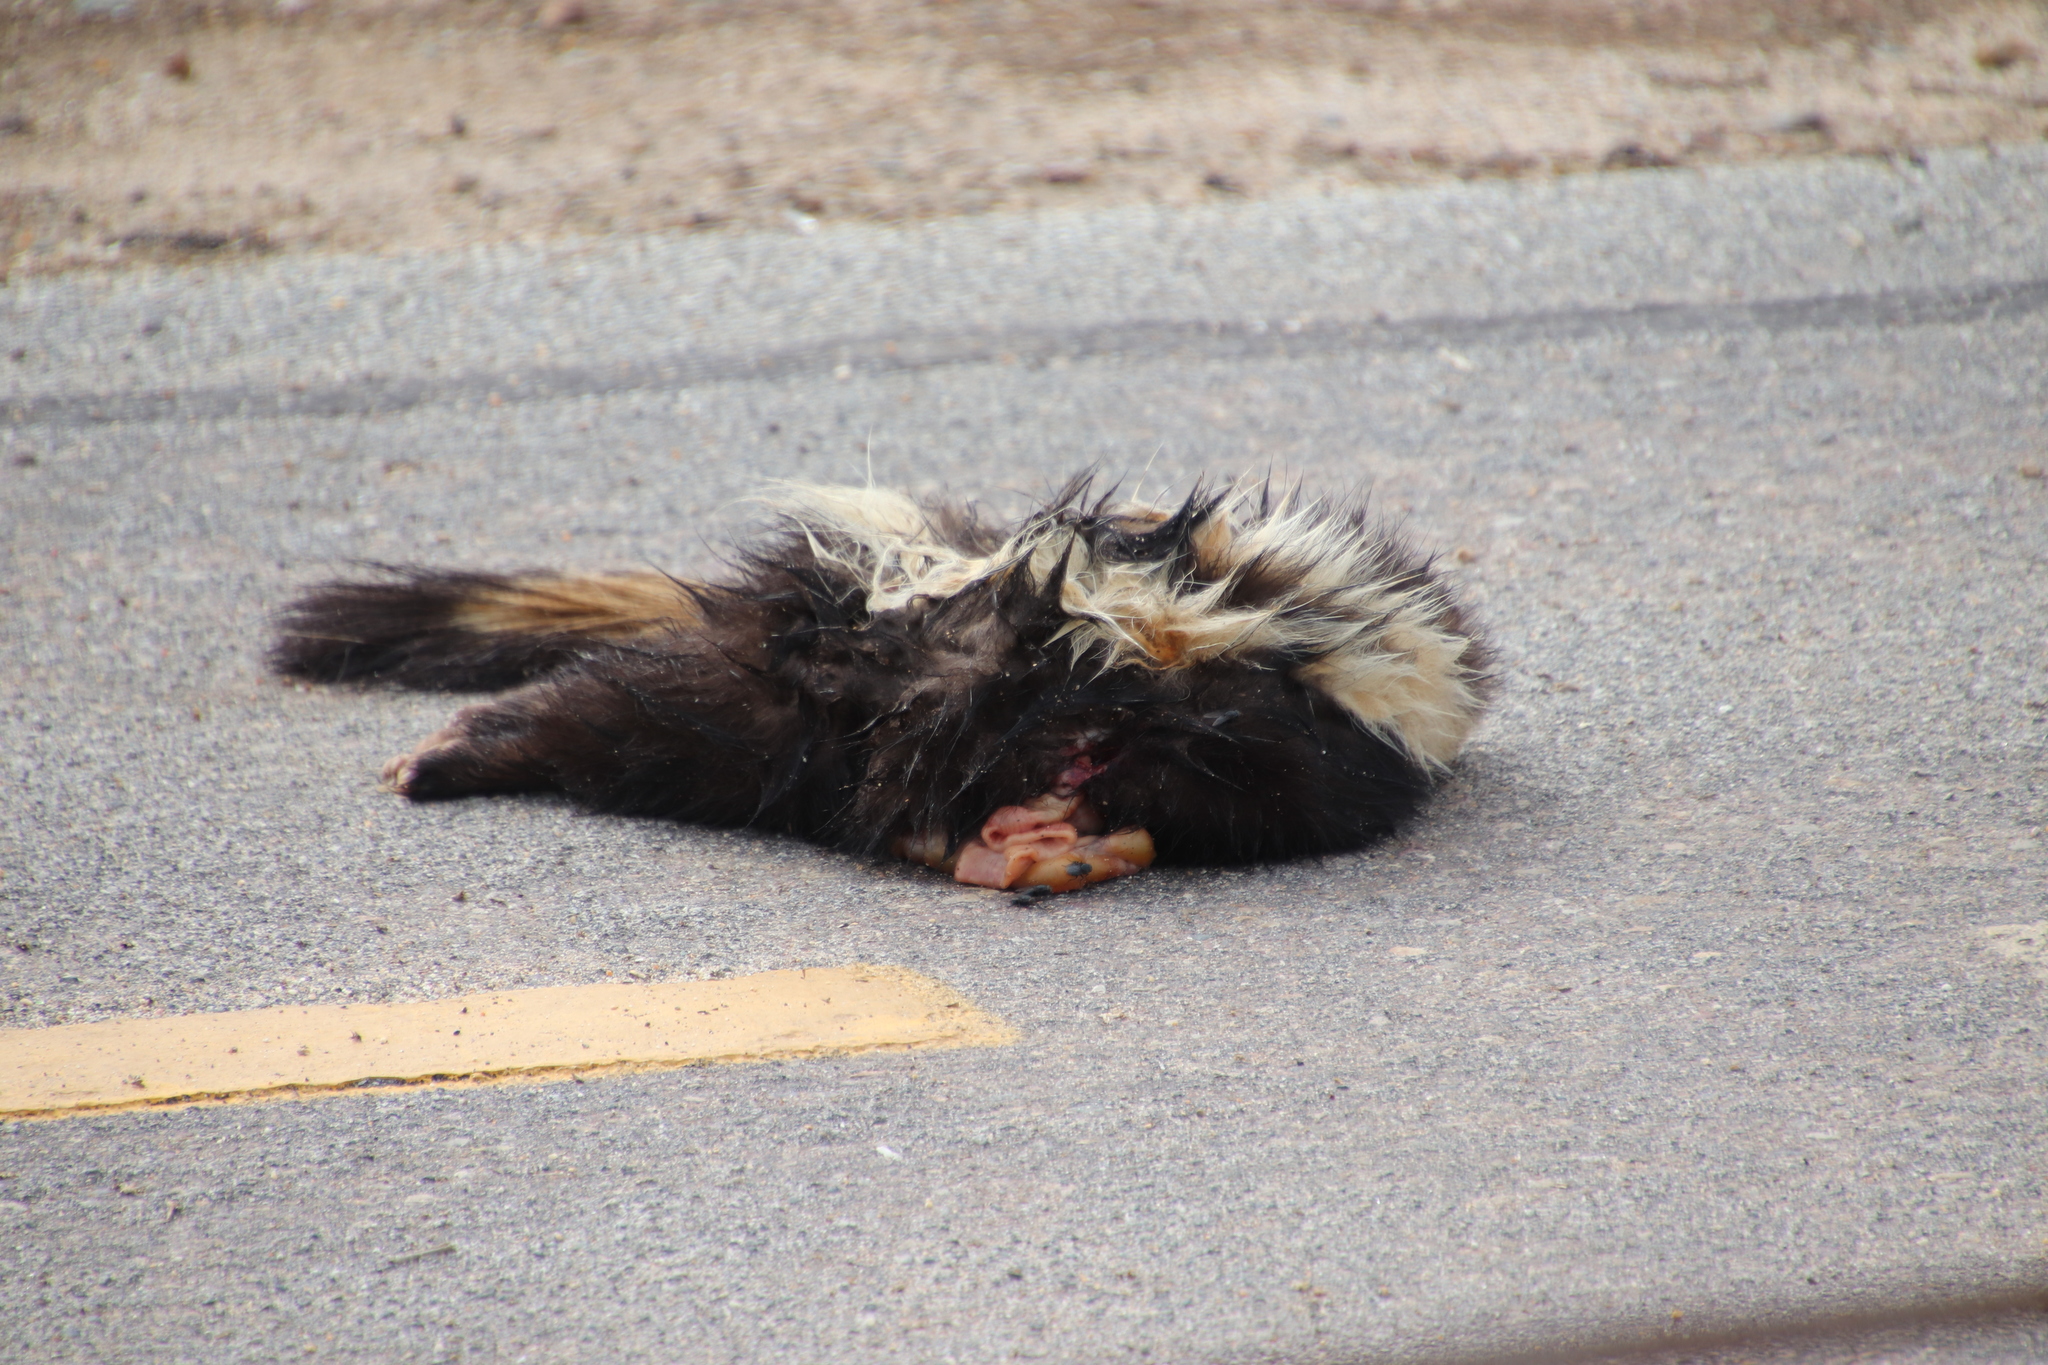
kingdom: Animalia
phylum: Chordata
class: Mammalia
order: Carnivora
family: Mephitidae
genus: Mephitis
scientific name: Mephitis mephitis
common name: Striped skunk
